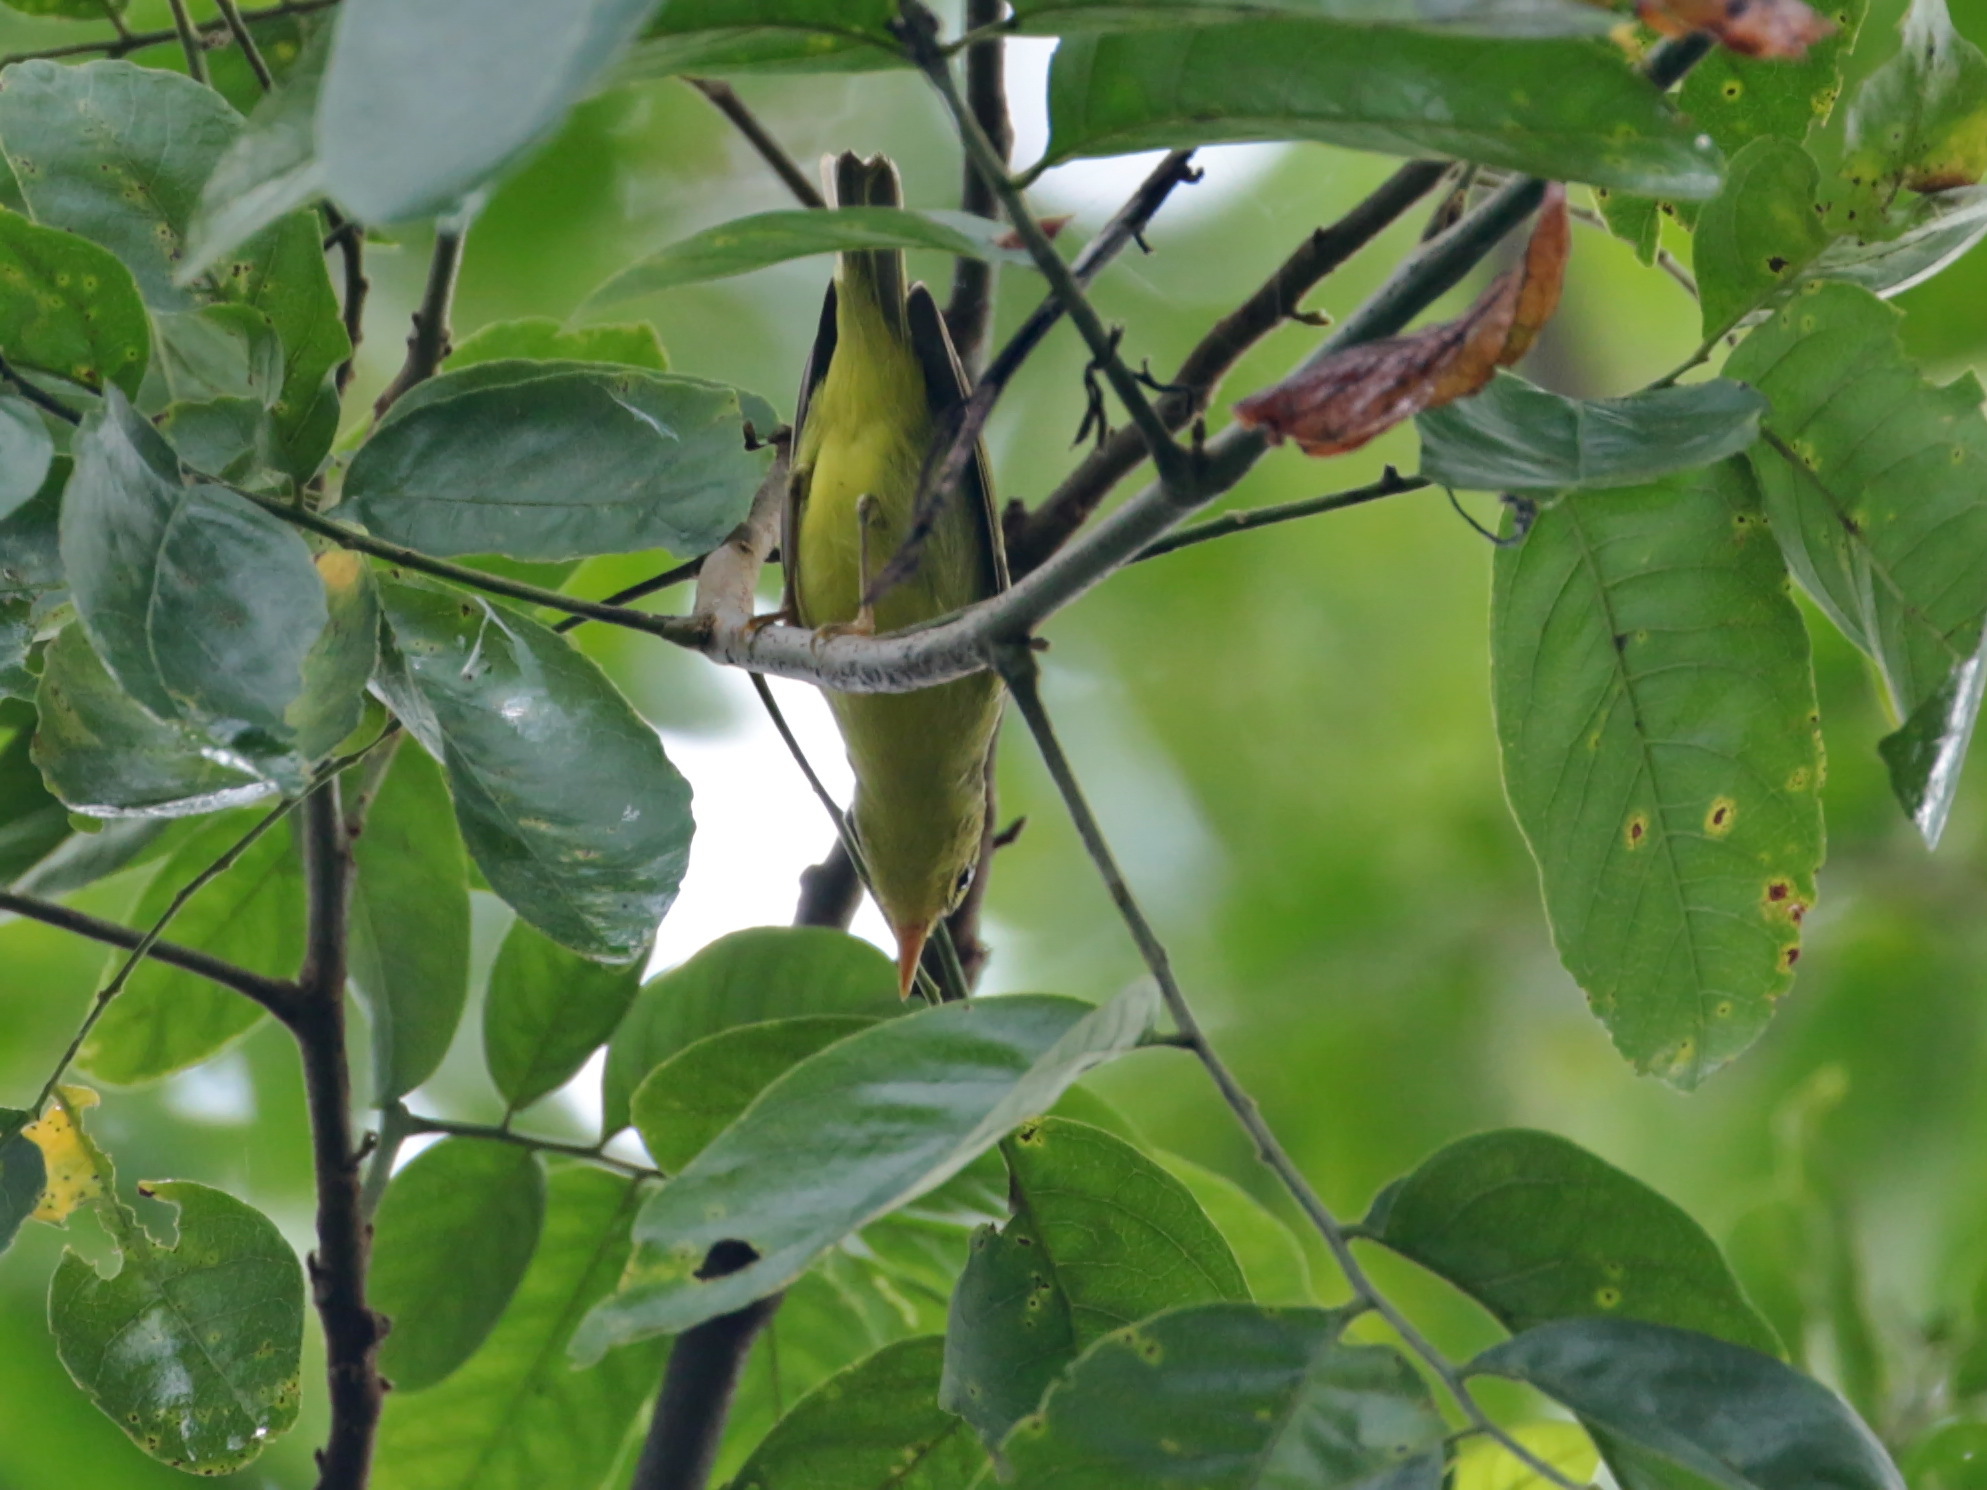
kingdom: Animalia
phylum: Chordata
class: Aves
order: Passeriformes
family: Phylloscopidae
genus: Phylloscopus
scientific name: Phylloscopus ricketti
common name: Sulphur-breasted warbler
